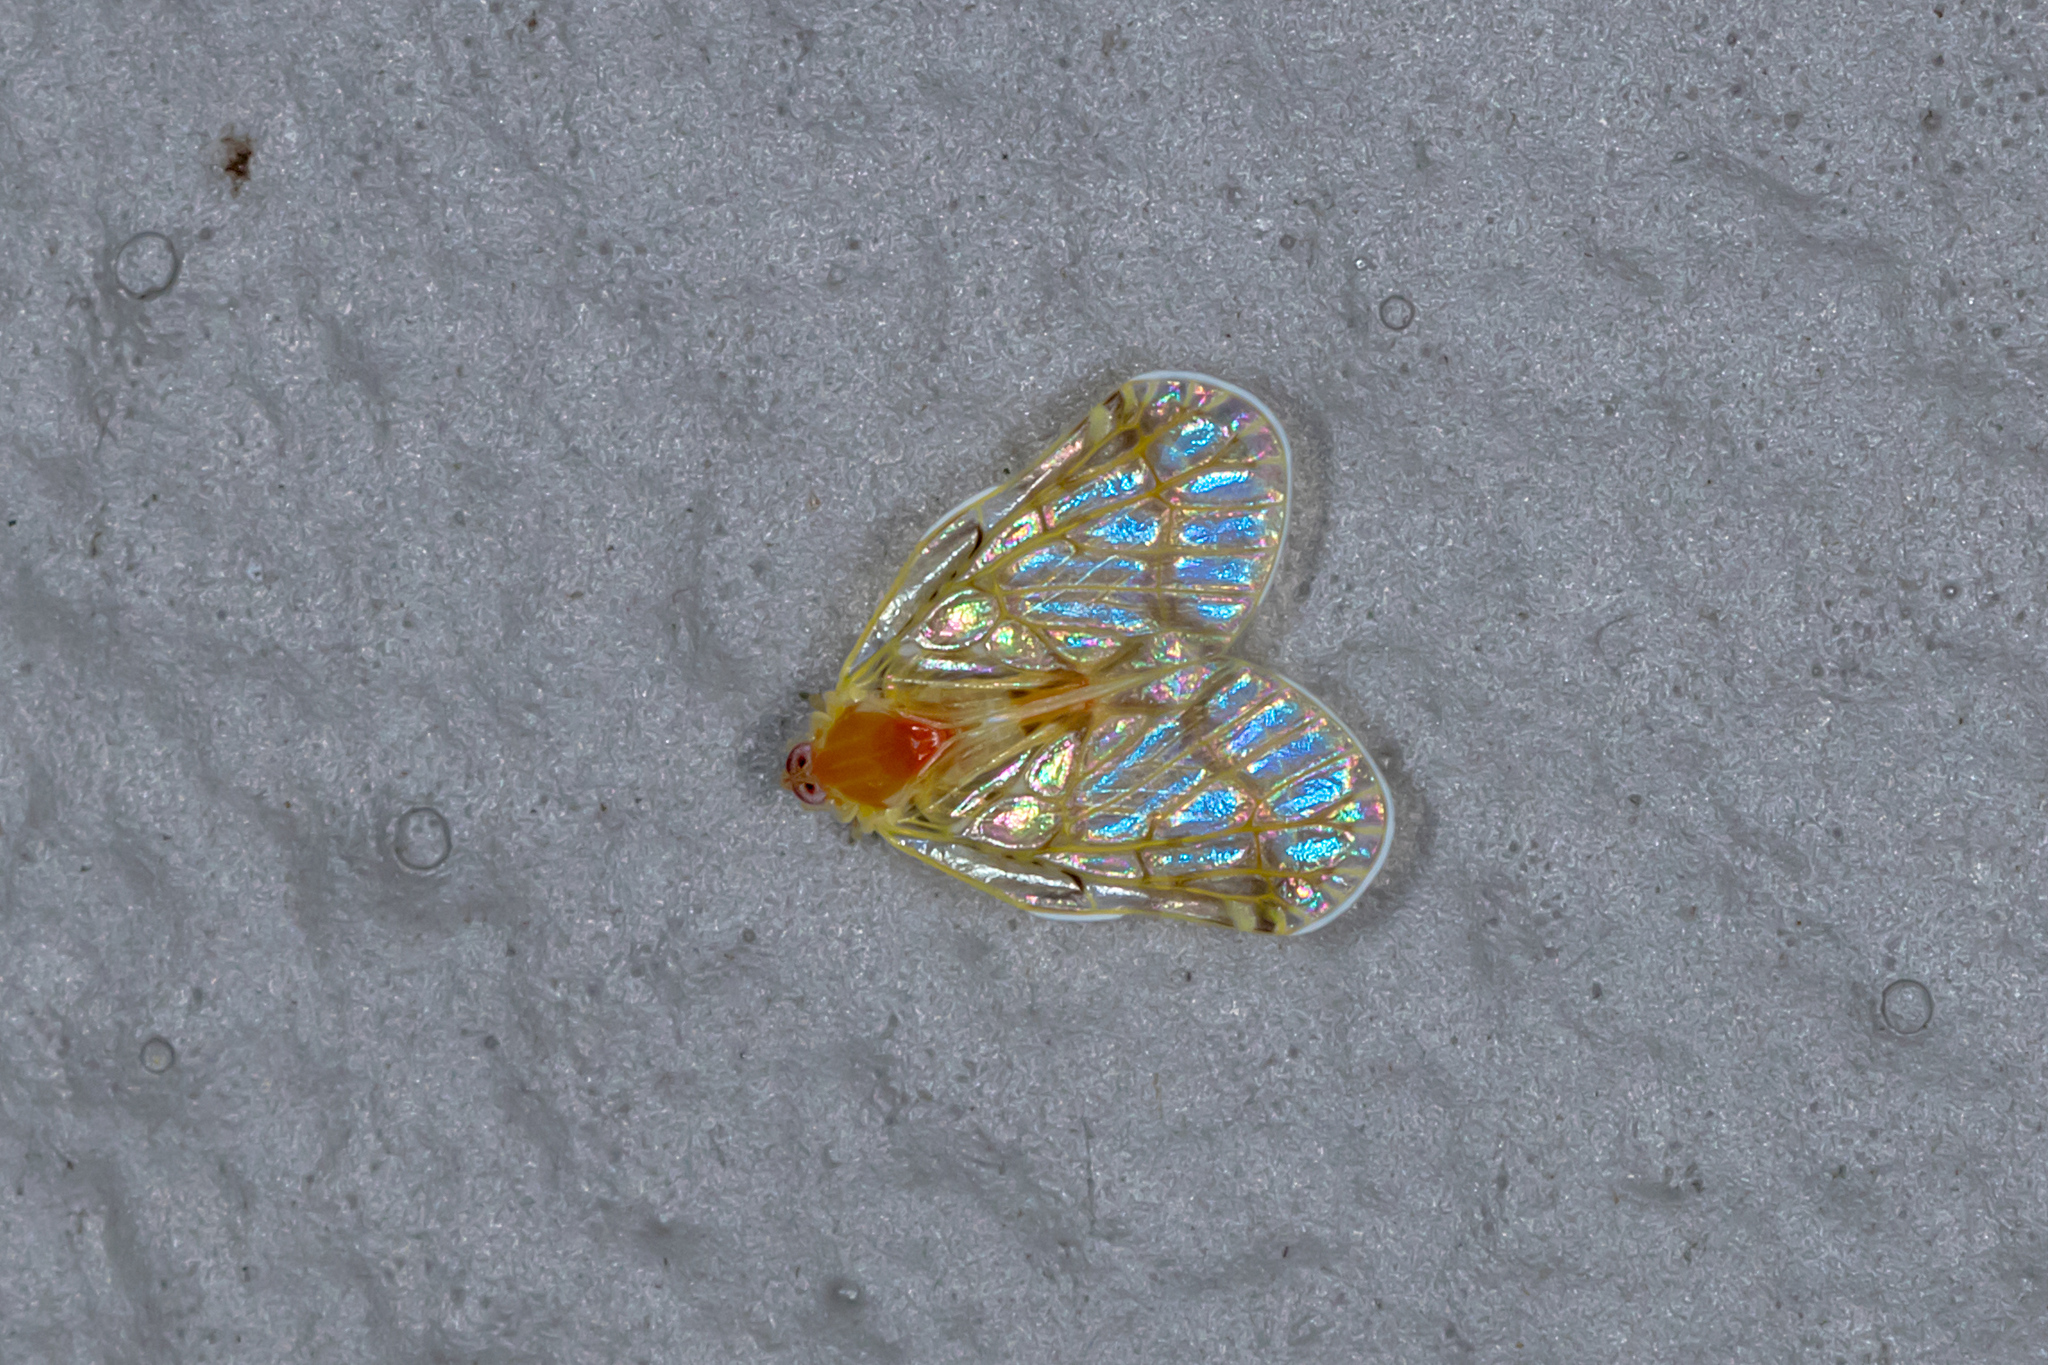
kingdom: Animalia
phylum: Arthropoda
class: Insecta
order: Hemiptera
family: Derbidae
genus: Saccharodite
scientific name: Saccharodite chrysonoe
